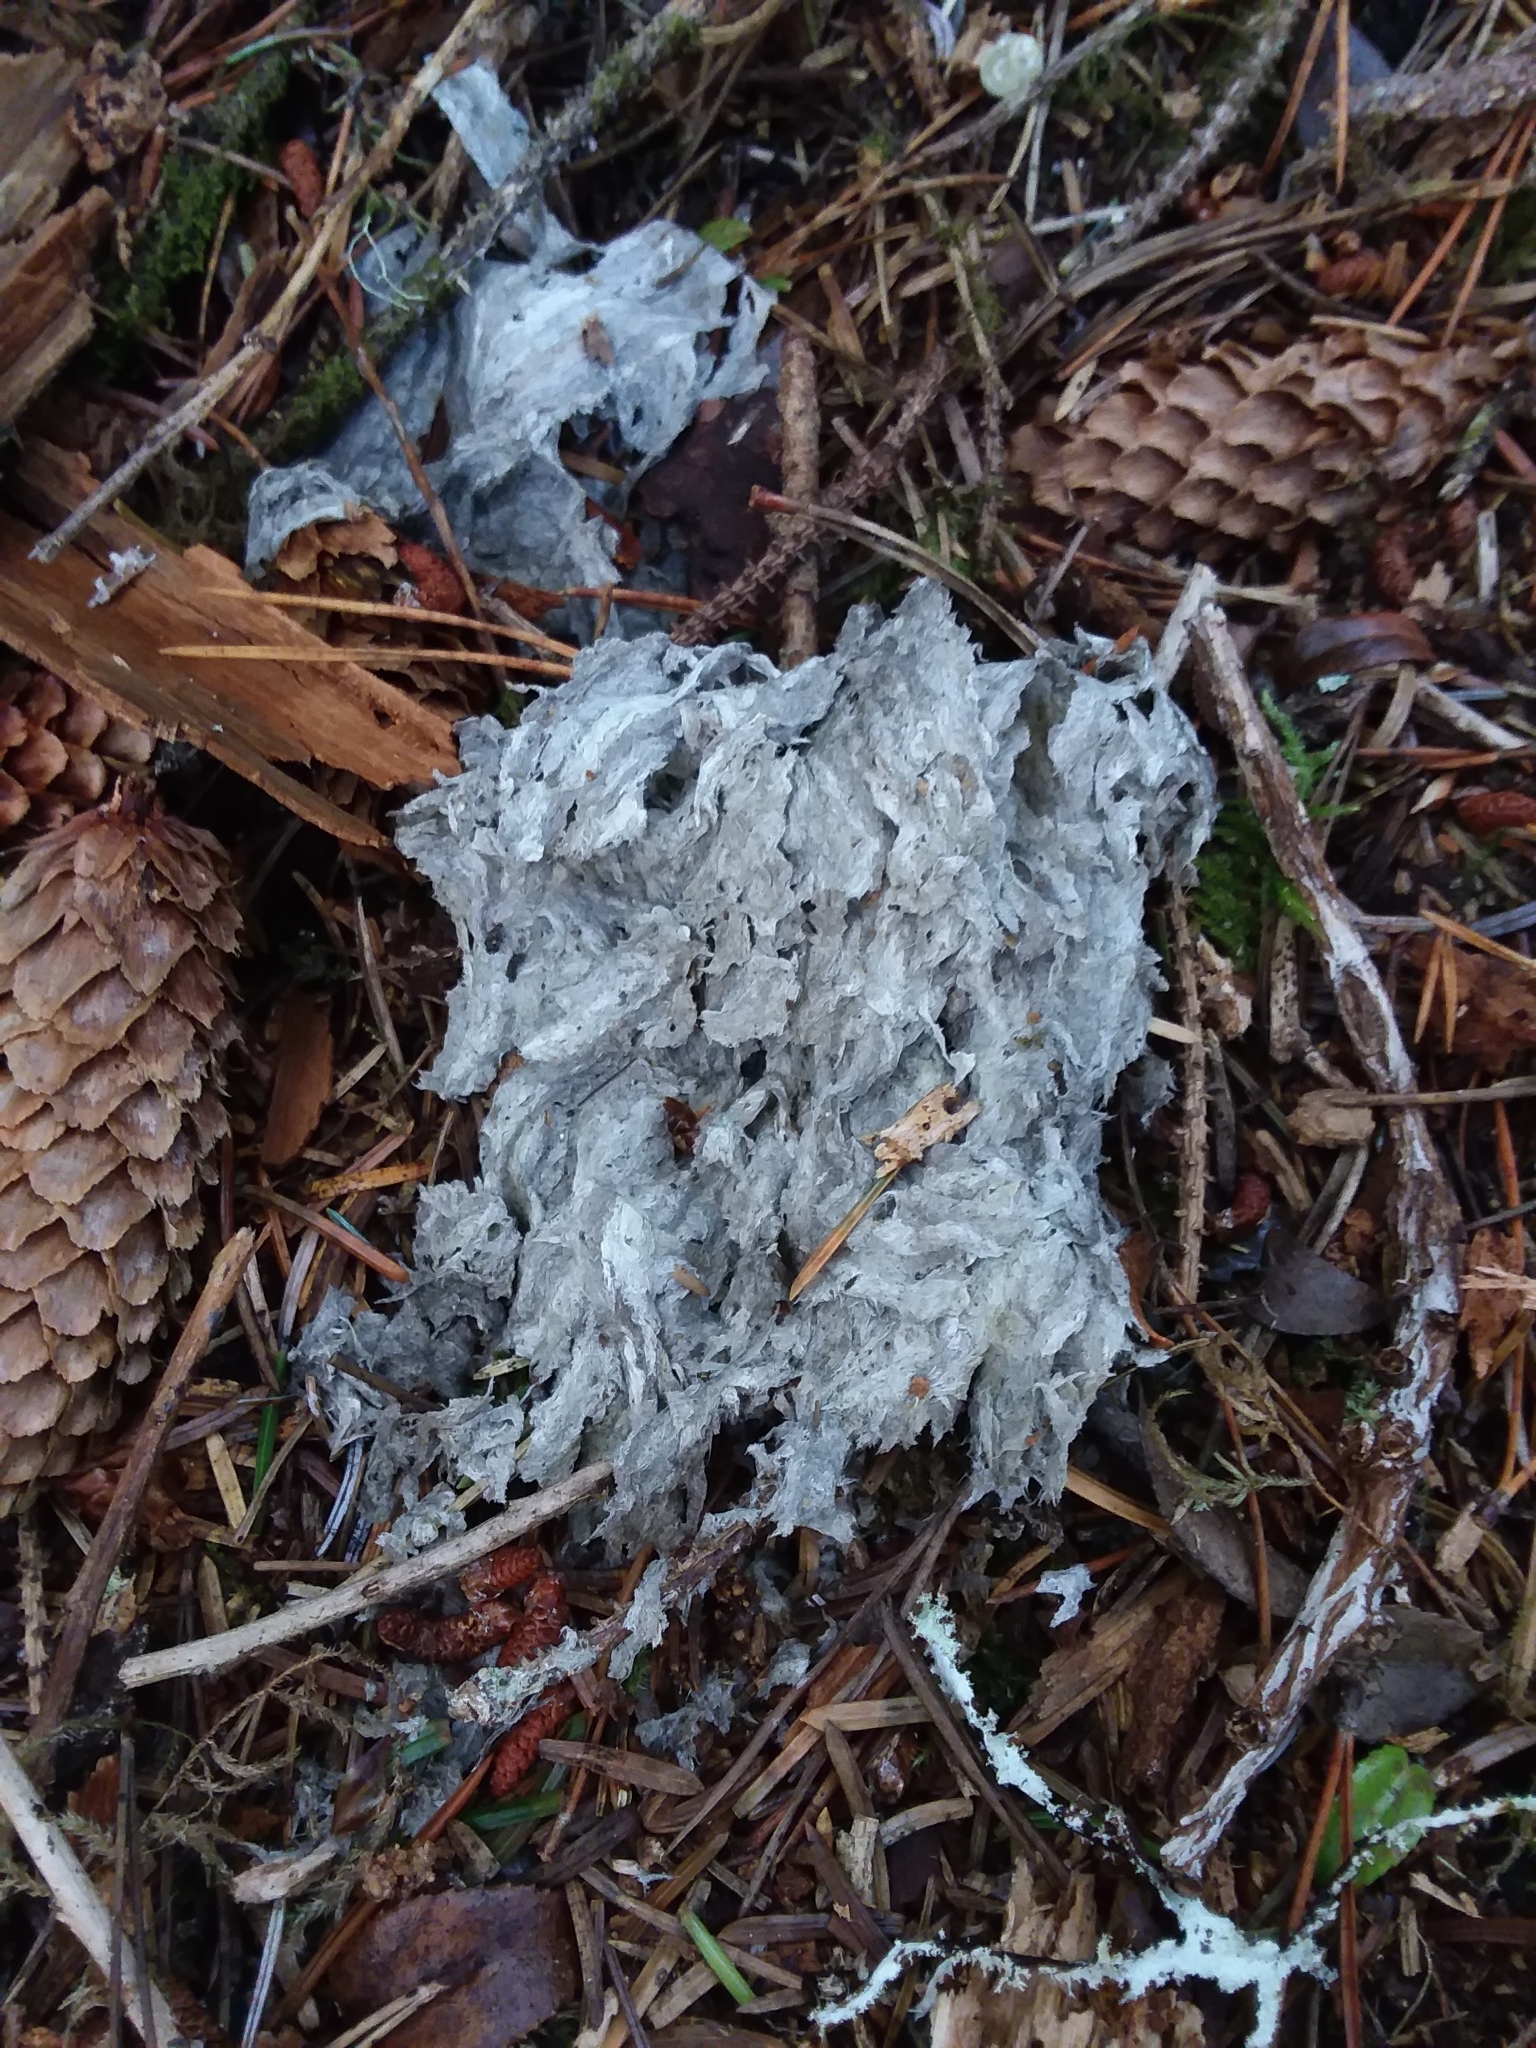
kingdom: Animalia
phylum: Arthropoda
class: Insecta
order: Hymenoptera
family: Vespidae
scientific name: Vespidae
